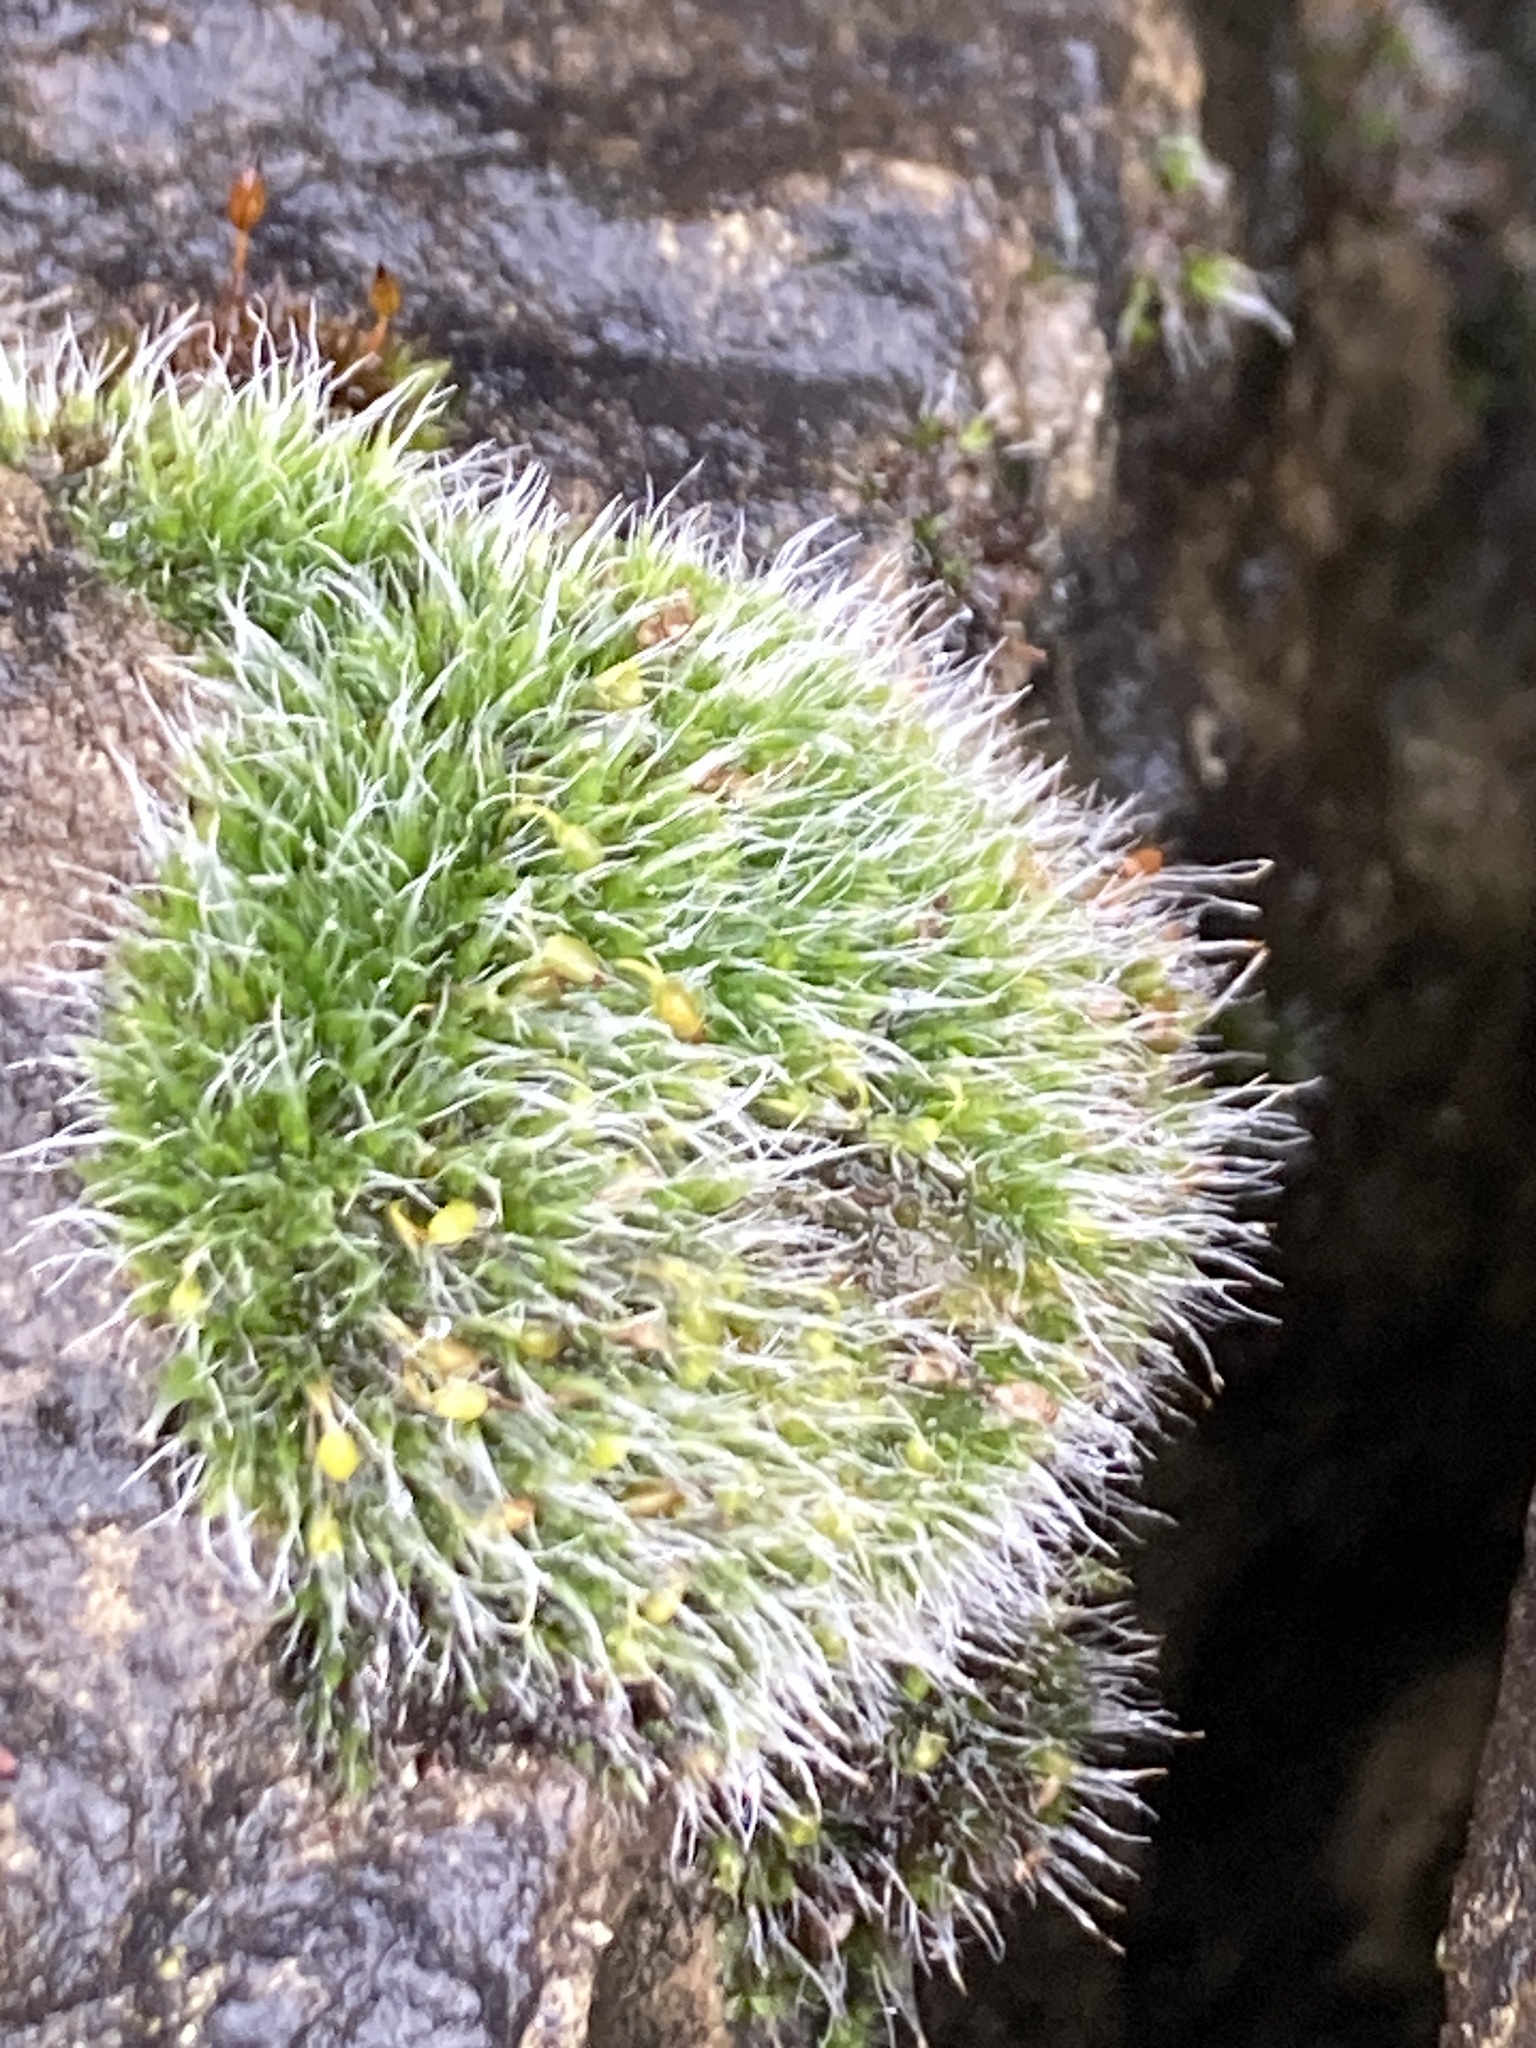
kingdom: Plantae
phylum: Bryophyta
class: Bryopsida
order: Grimmiales
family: Grimmiaceae
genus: Grimmia
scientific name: Grimmia pulvinata
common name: Grey-cushioned grimmia
